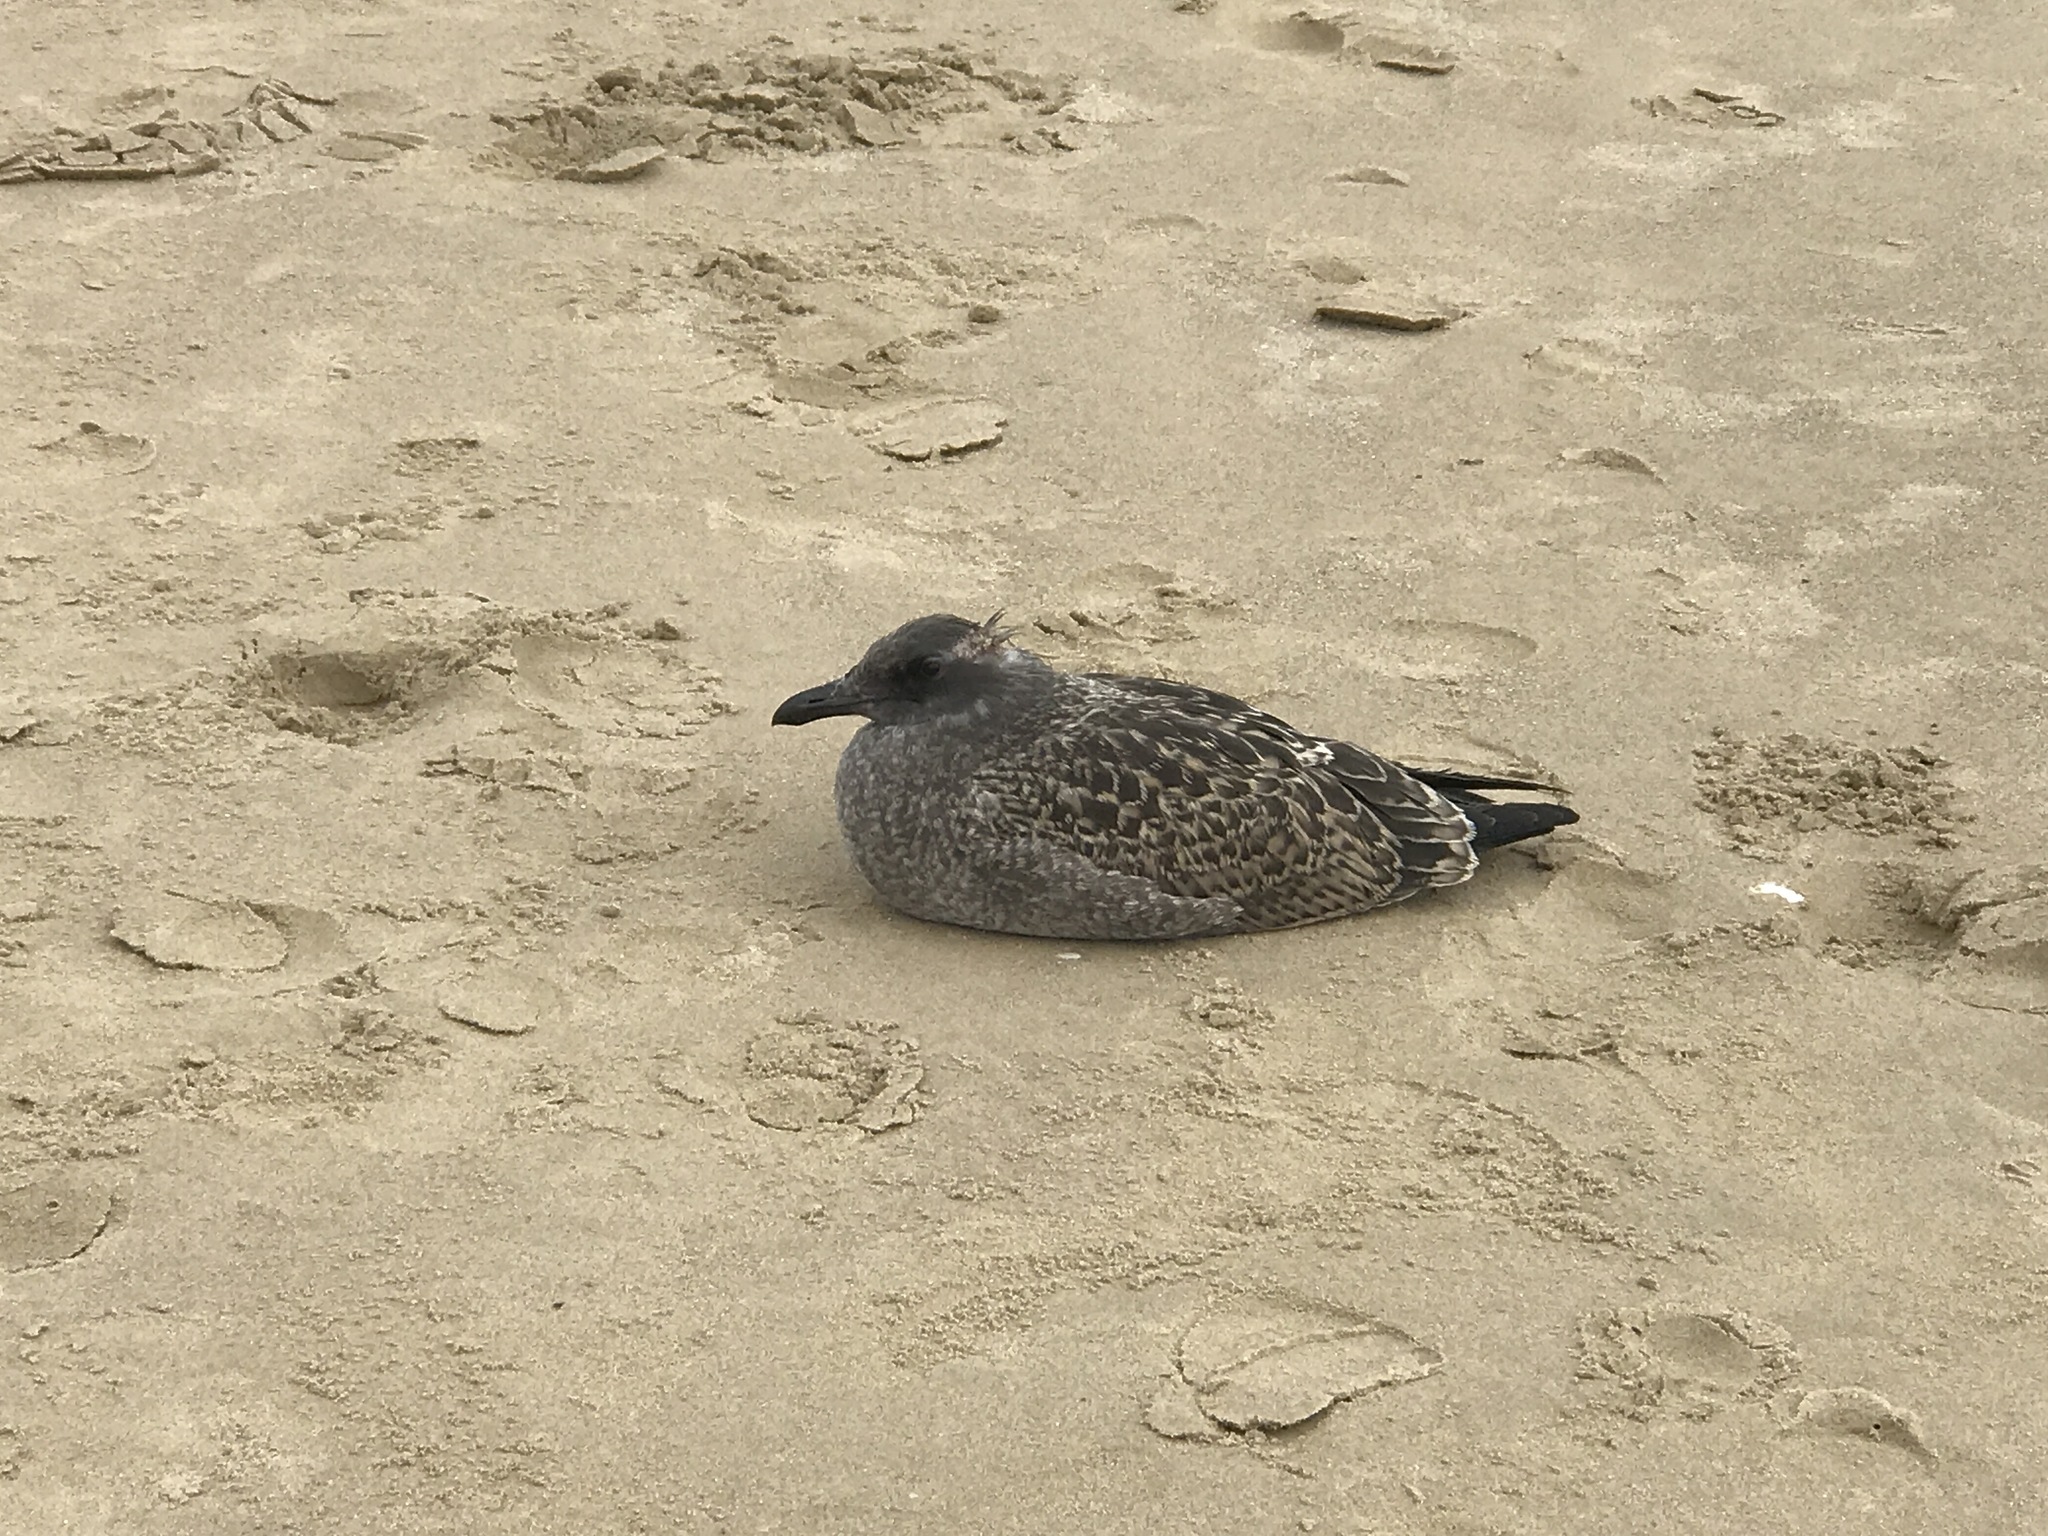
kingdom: Animalia
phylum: Chordata
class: Aves
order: Charadriiformes
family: Laridae
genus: Larus
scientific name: Larus occidentalis
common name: Western gull
